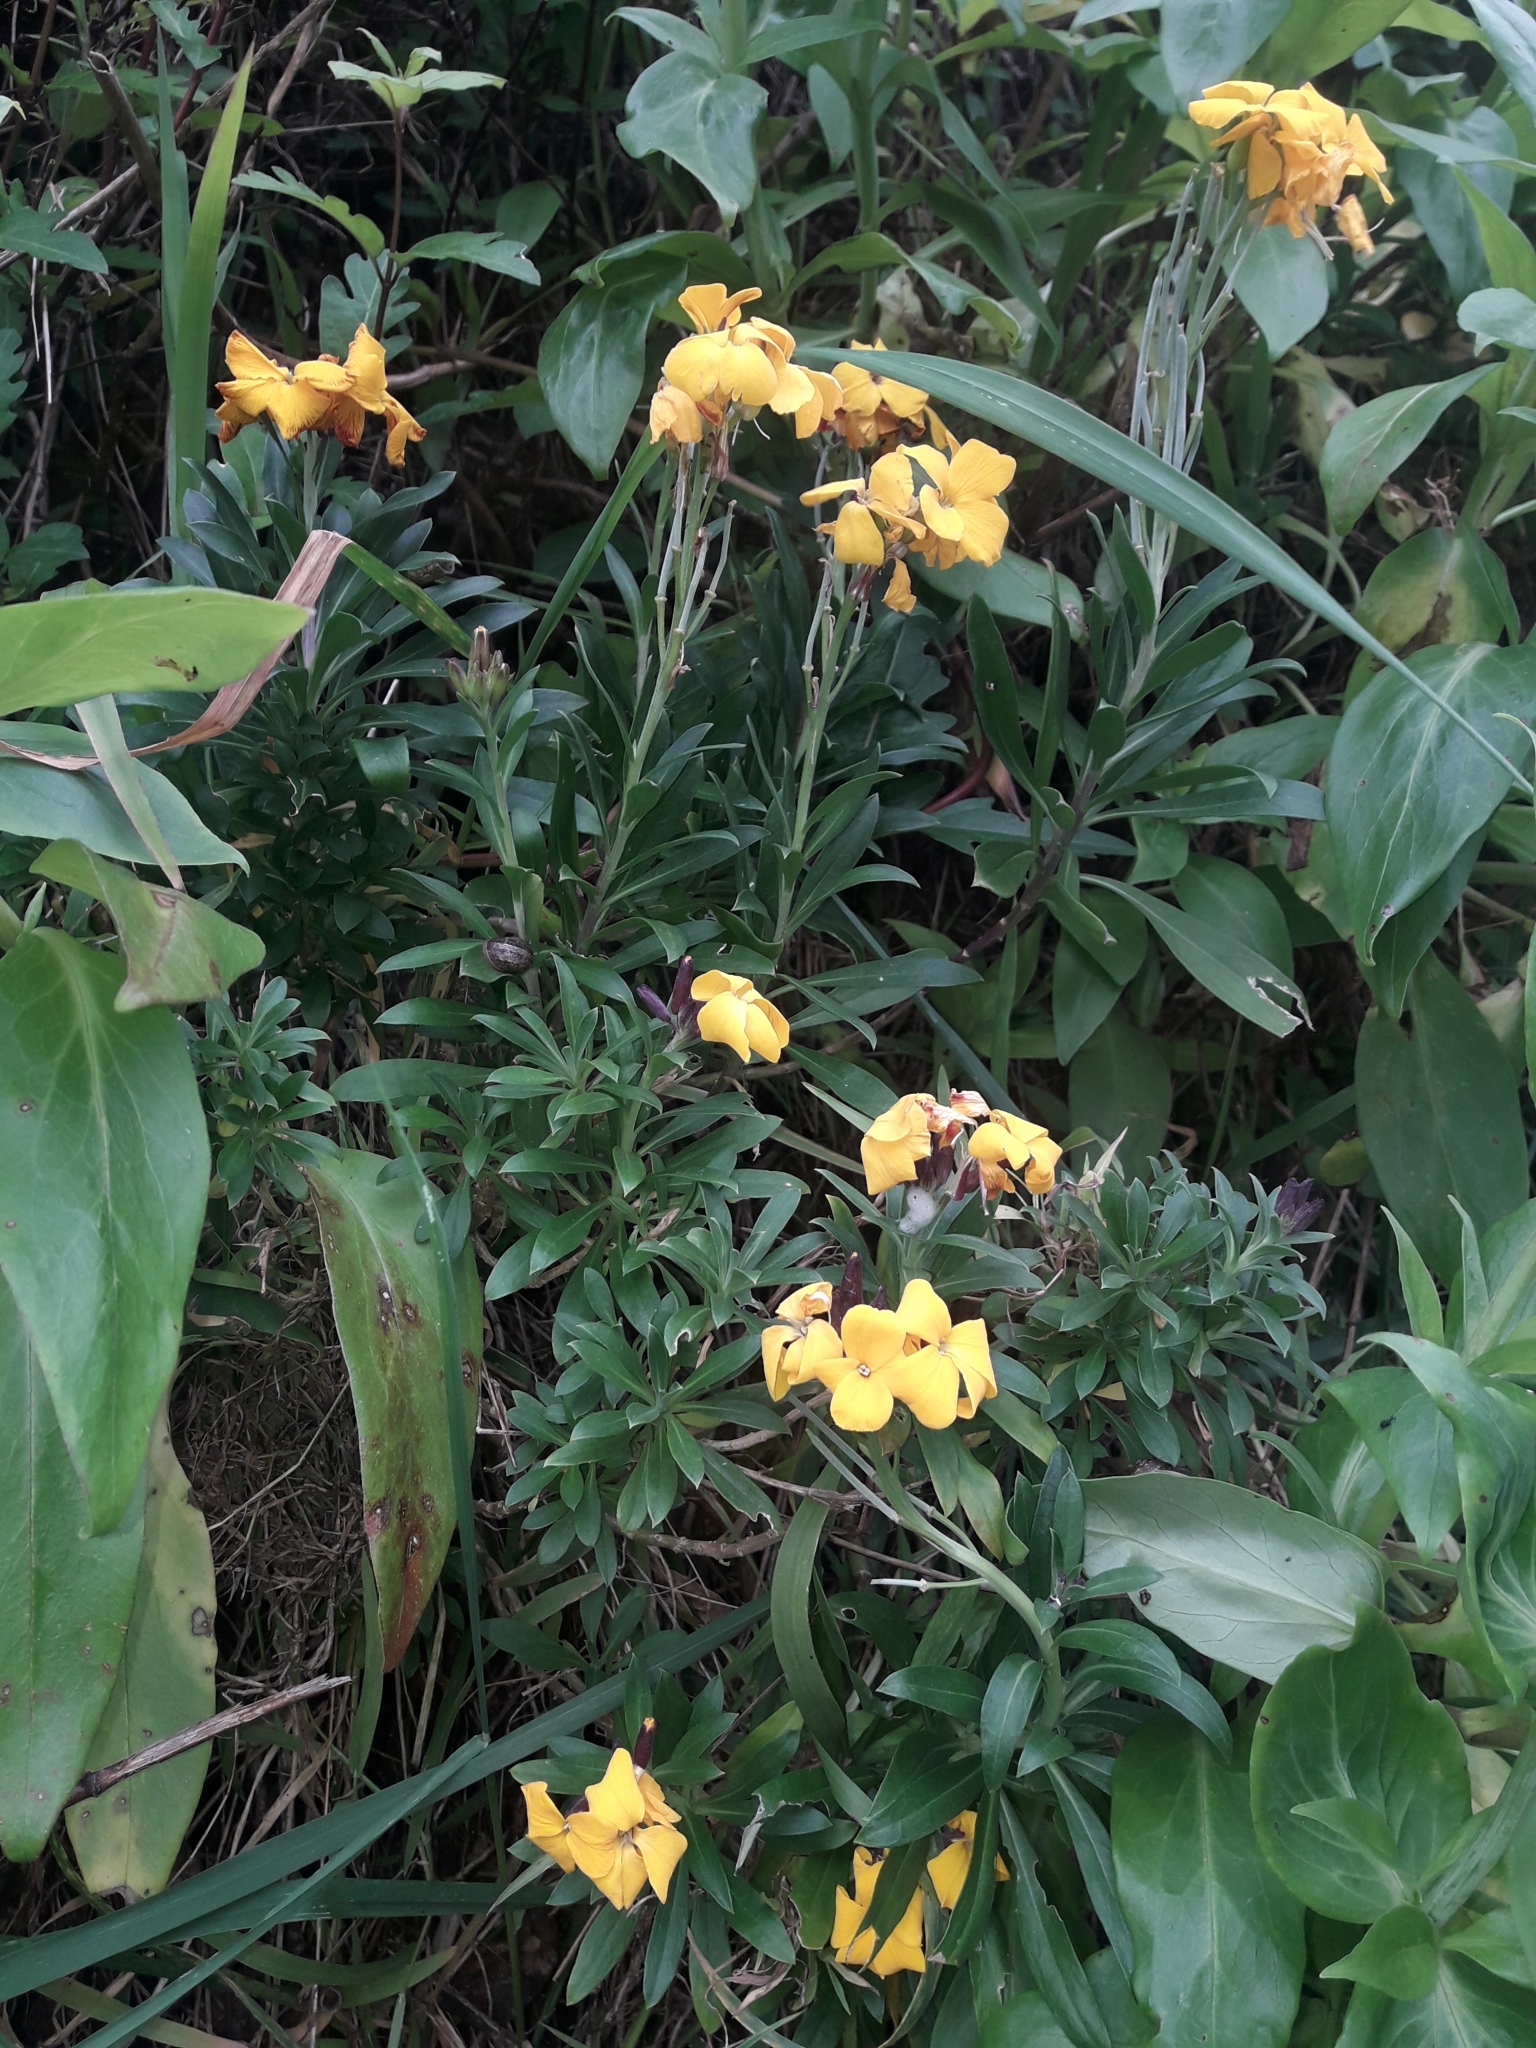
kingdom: Plantae
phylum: Tracheophyta
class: Magnoliopsida
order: Brassicales
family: Brassicaceae
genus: Erysimum
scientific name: Erysimum cheiri
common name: Wallflower
